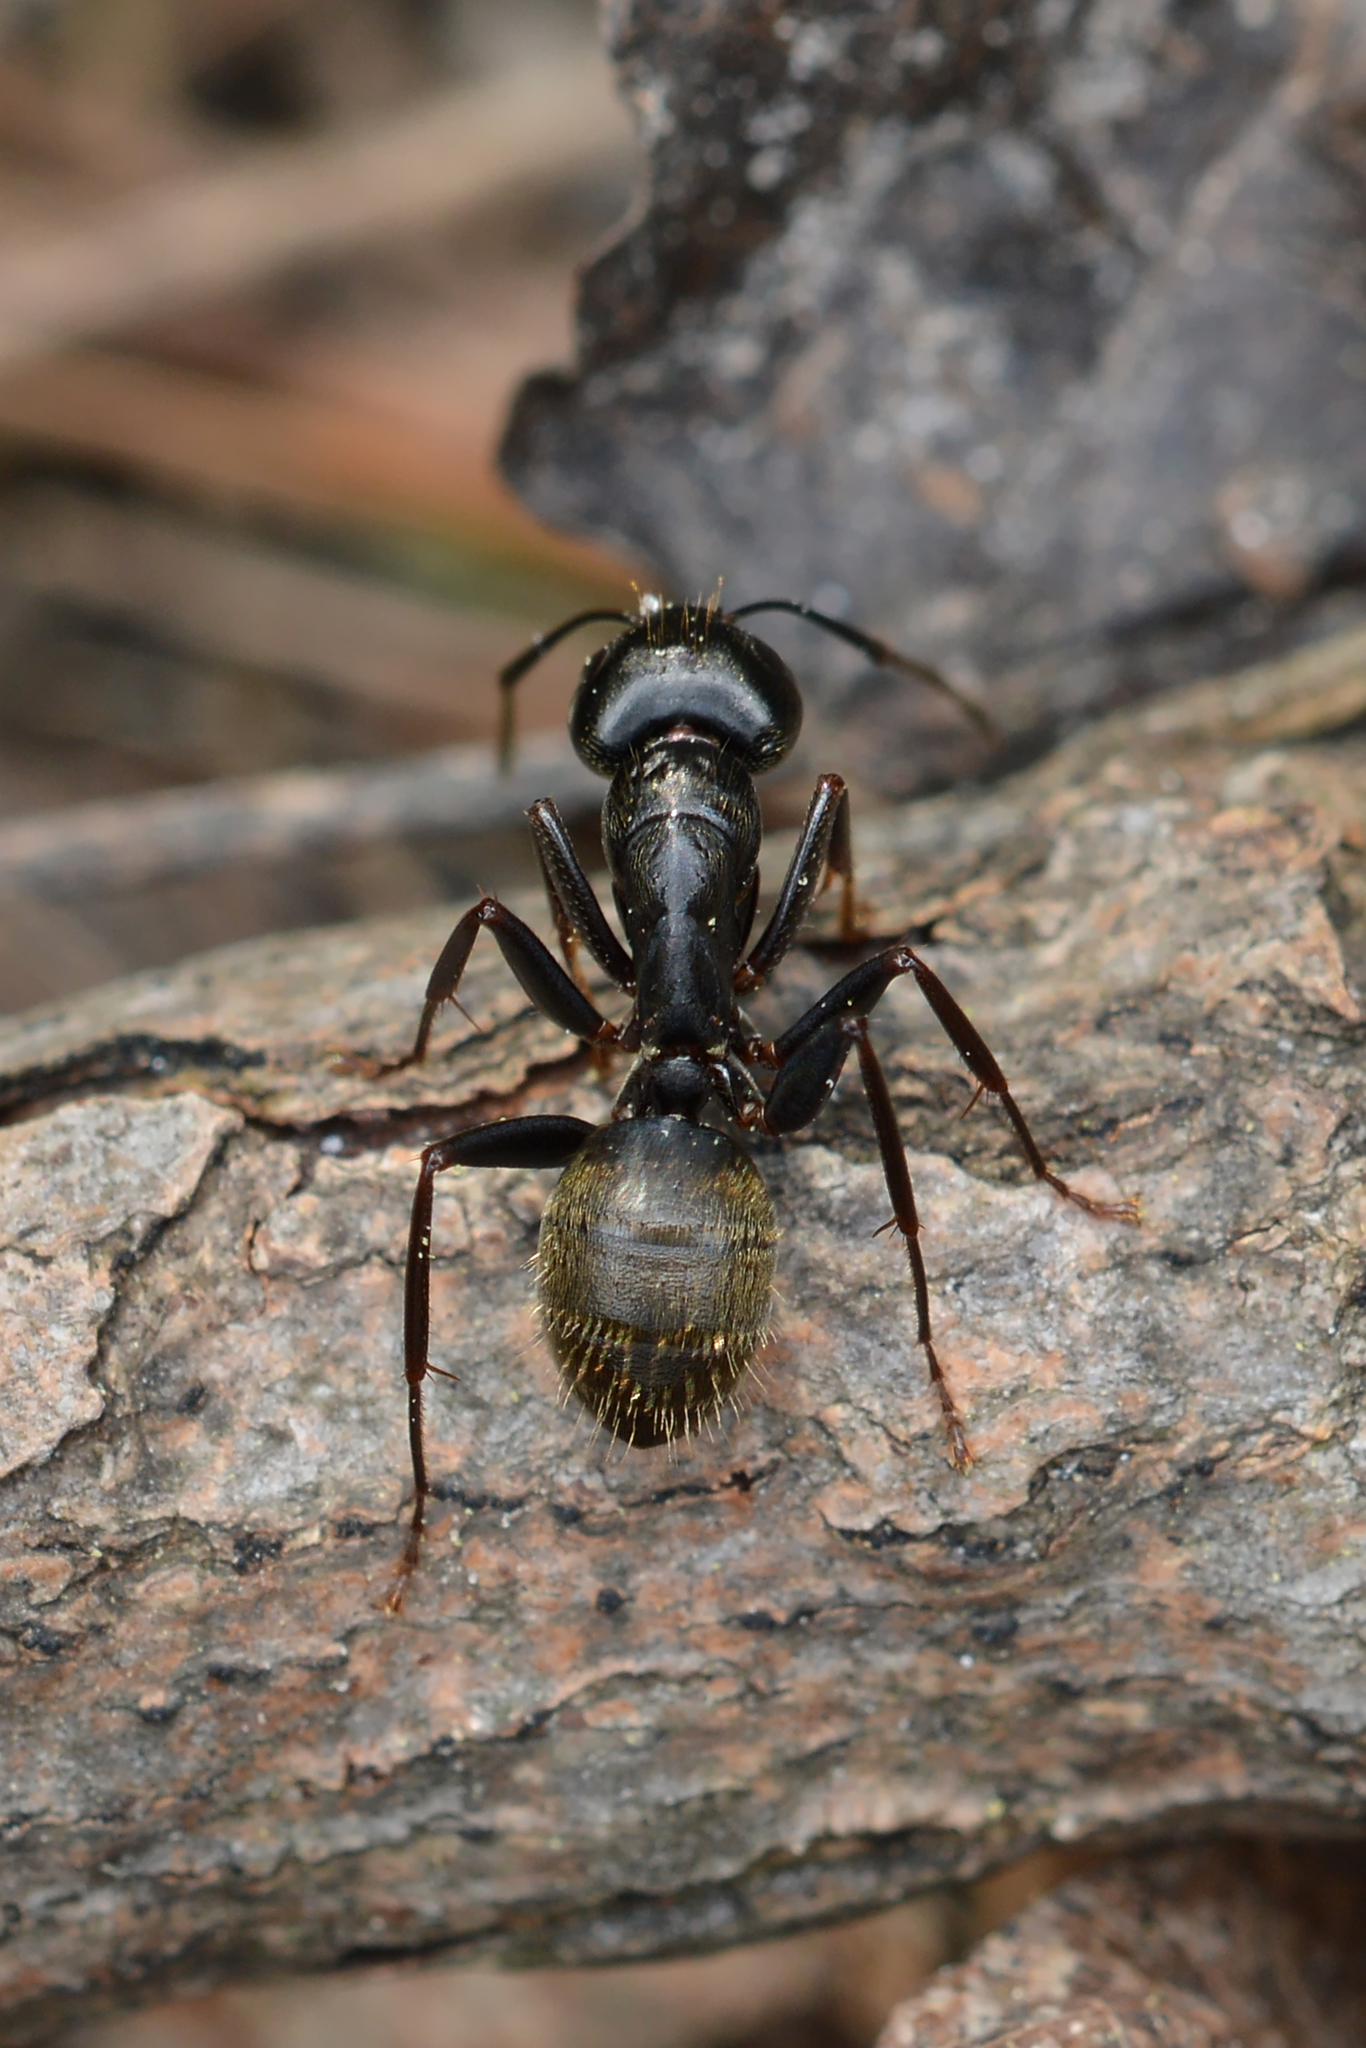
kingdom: Animalia
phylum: Arthropoda
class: Insecta
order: Hymenoptera
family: Formicidae
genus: Camponotus
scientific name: Camponotus pennsylvanicus
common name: Black carpenter ant
